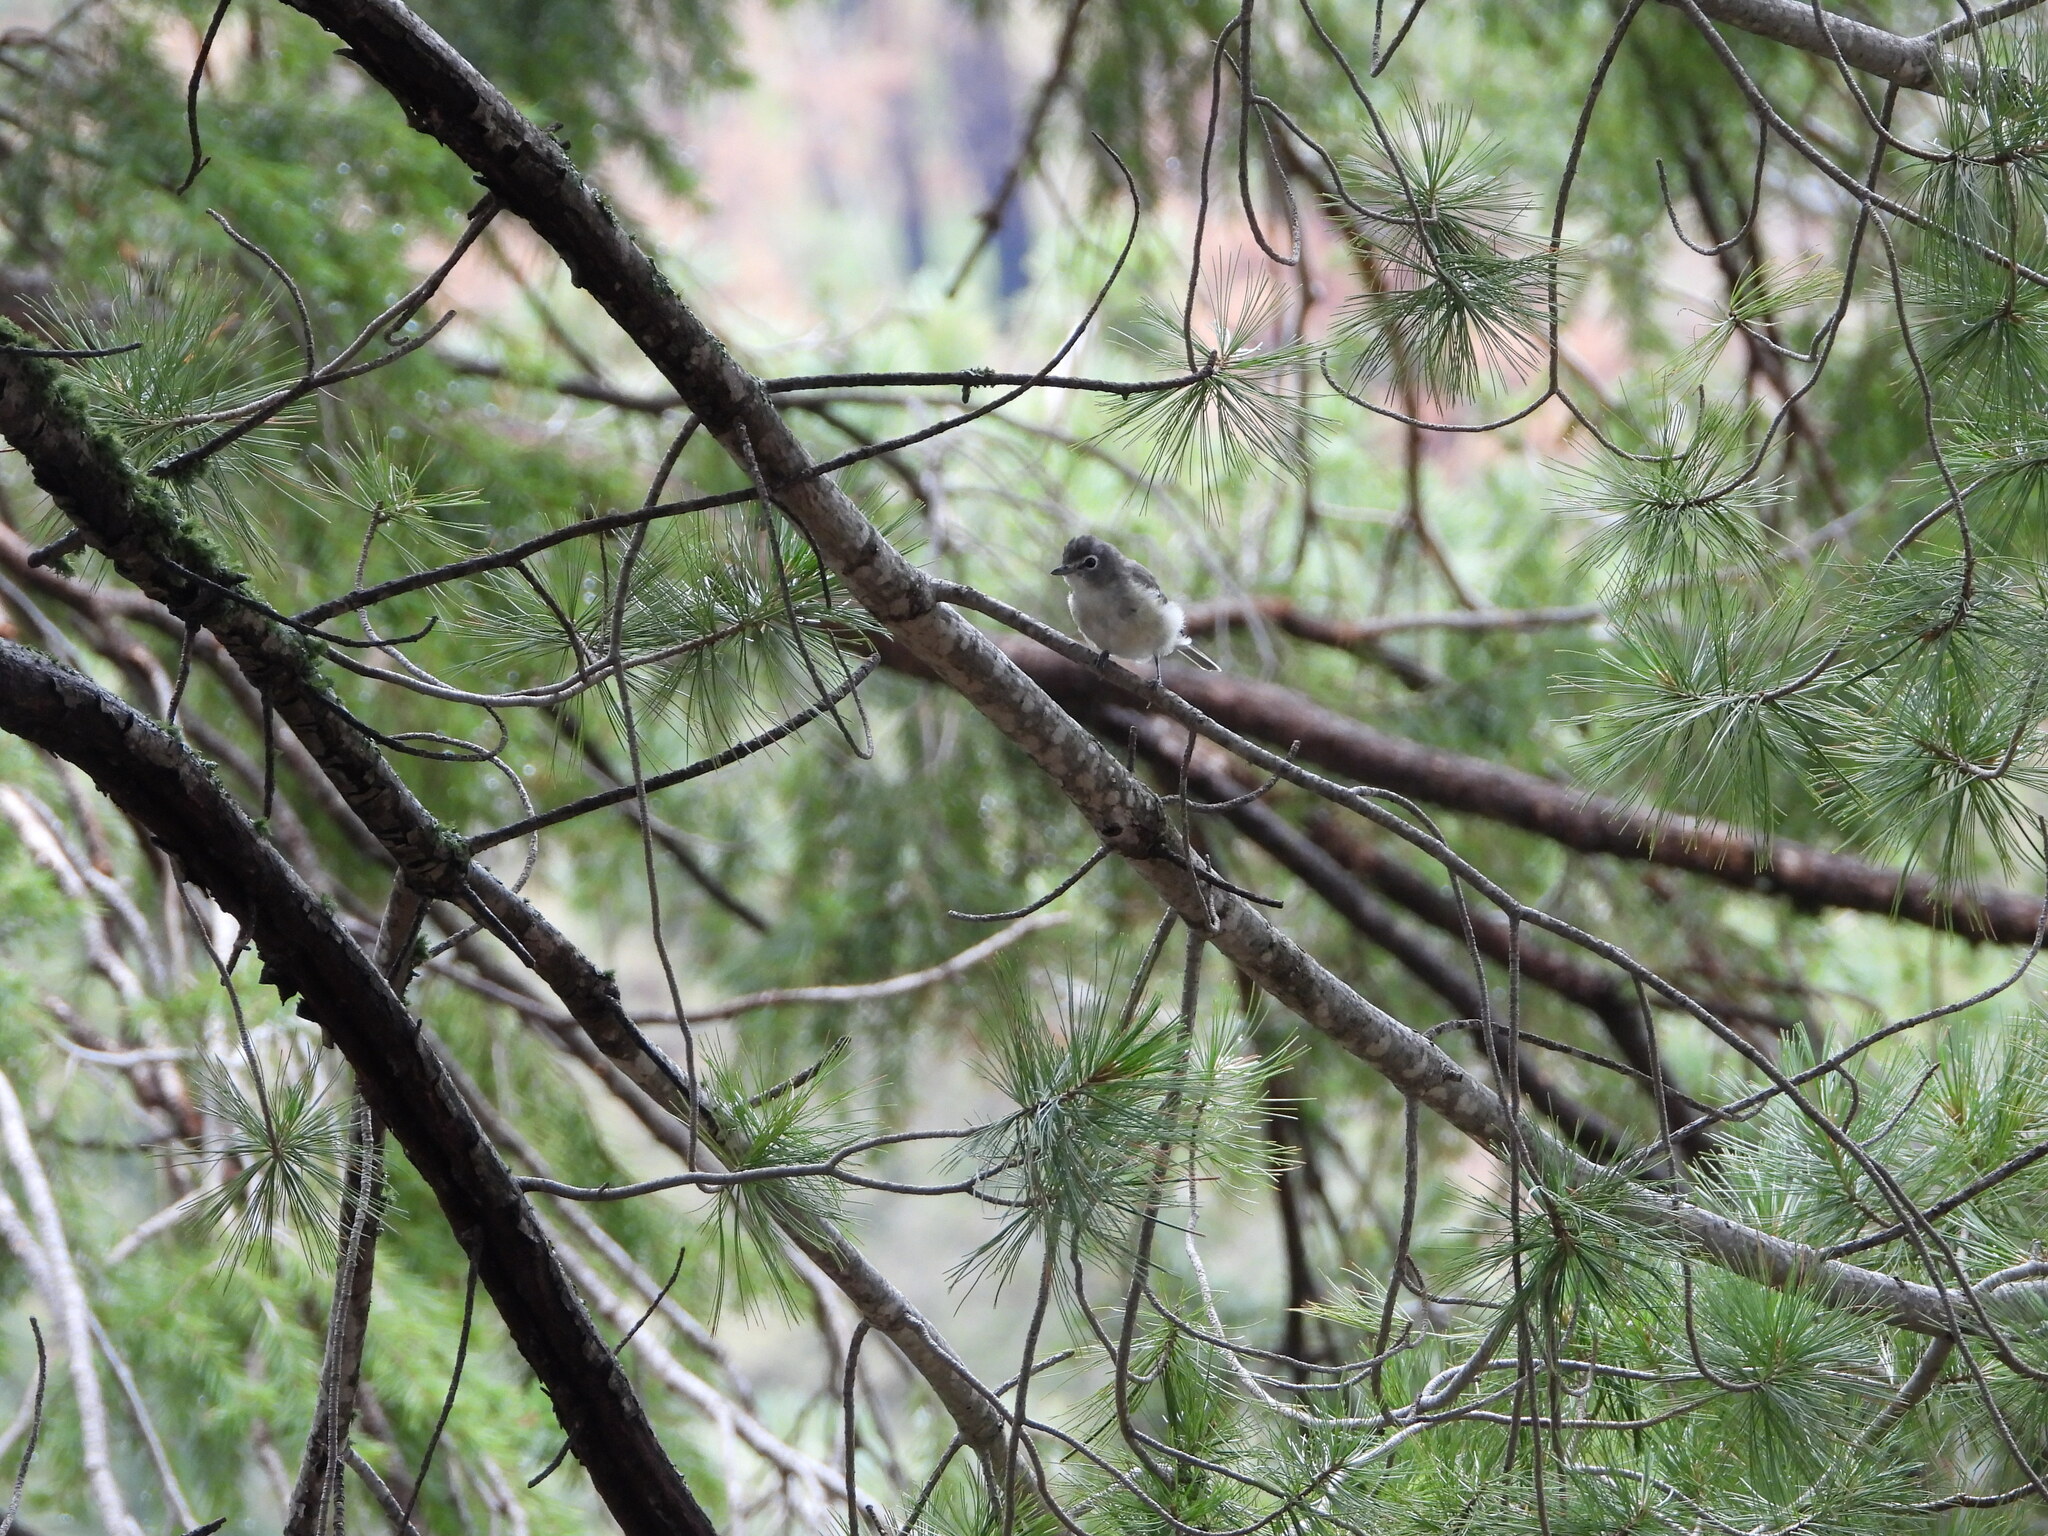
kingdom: Animalia
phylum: Chordata
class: Aves
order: Passeriformes
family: Vireonidae
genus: Vireo
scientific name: Vireo plumbeus
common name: Plumbeous vireo
